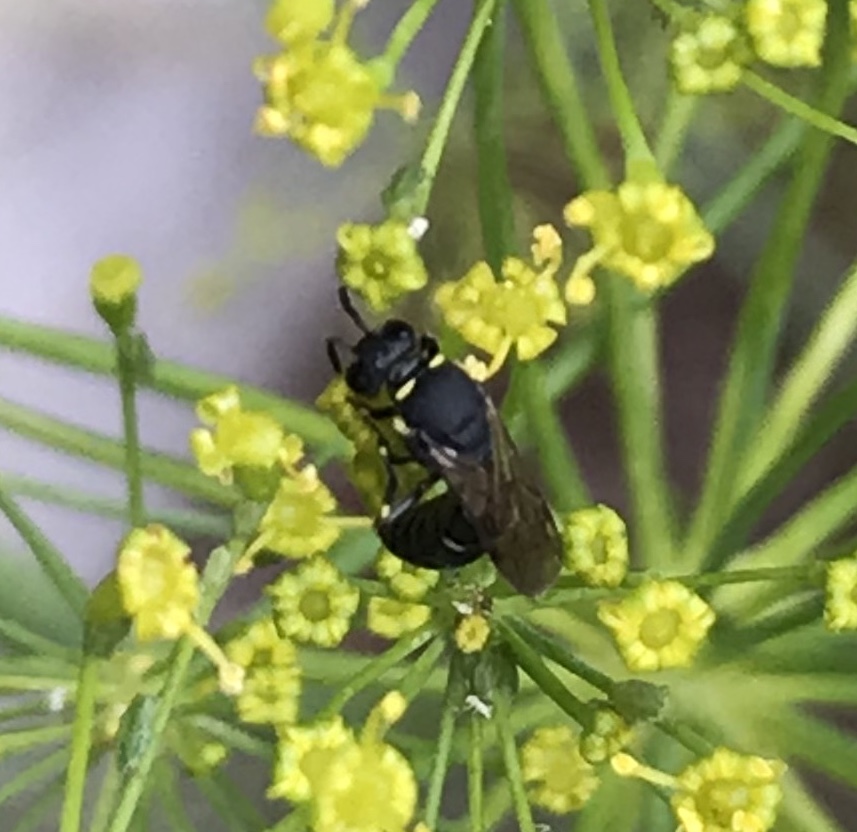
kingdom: Animalia
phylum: Arthropoda
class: Insecta
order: Hymenoptera
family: Colletidae
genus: Hylaeus
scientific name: Hylaeus modestus
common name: Yellow-faced bee
